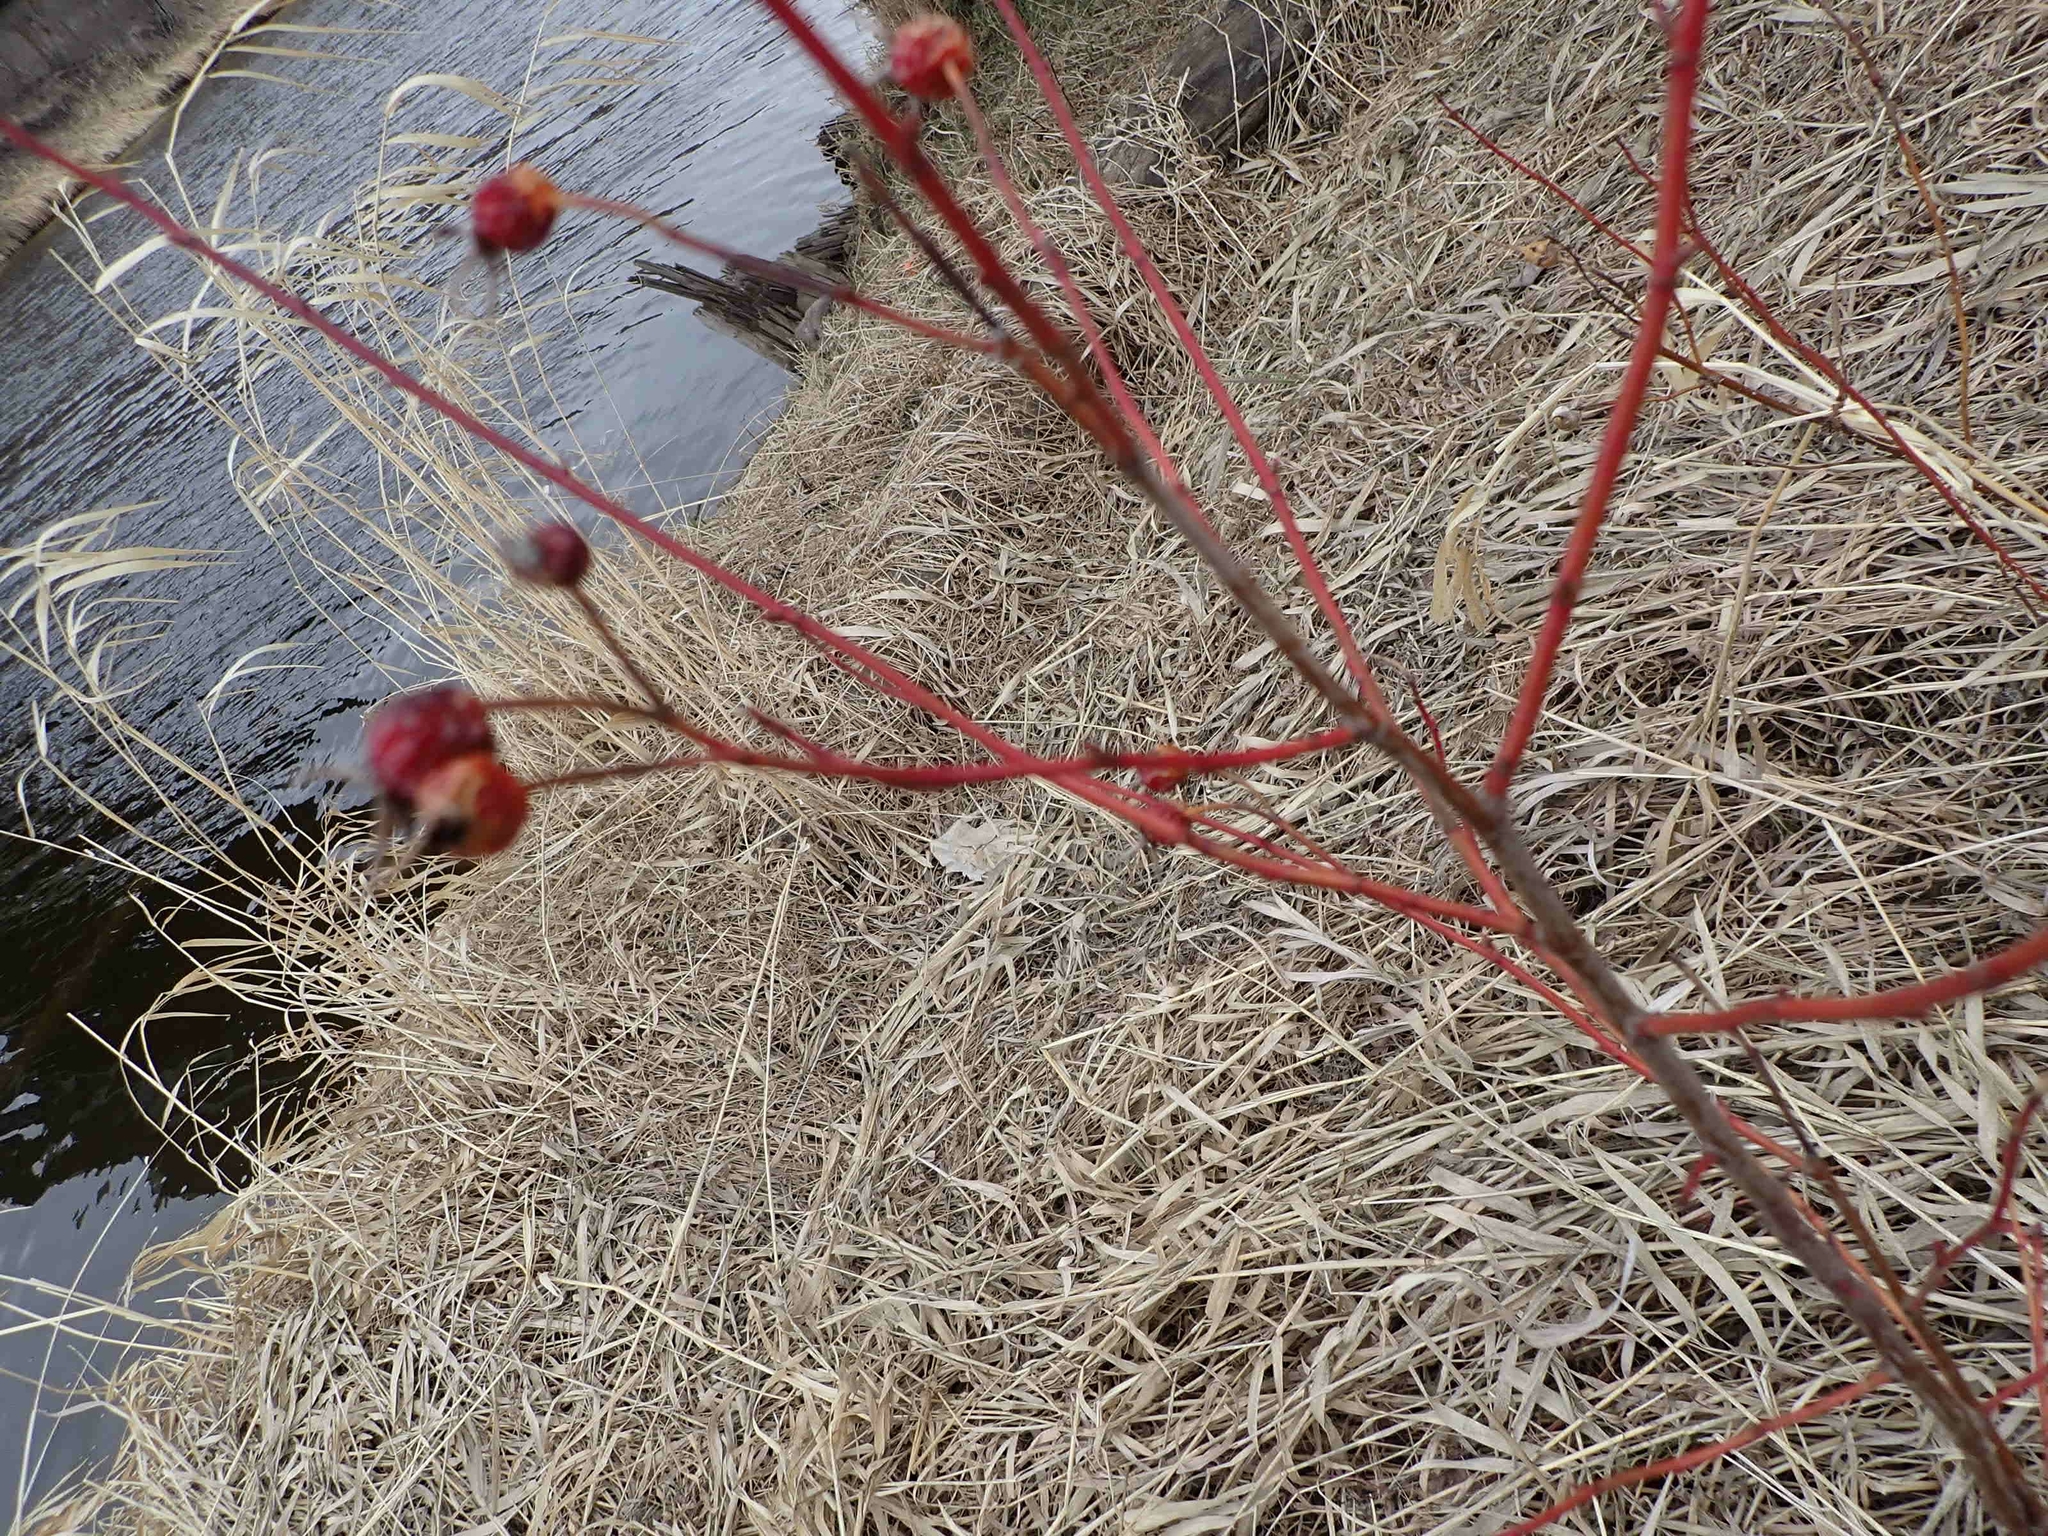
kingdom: Plantae
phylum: Tracheophyta
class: Magnoliopsida
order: Rosales
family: Rosaceae
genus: Rosa
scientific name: Rosa woodsii
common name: Woods's rose
